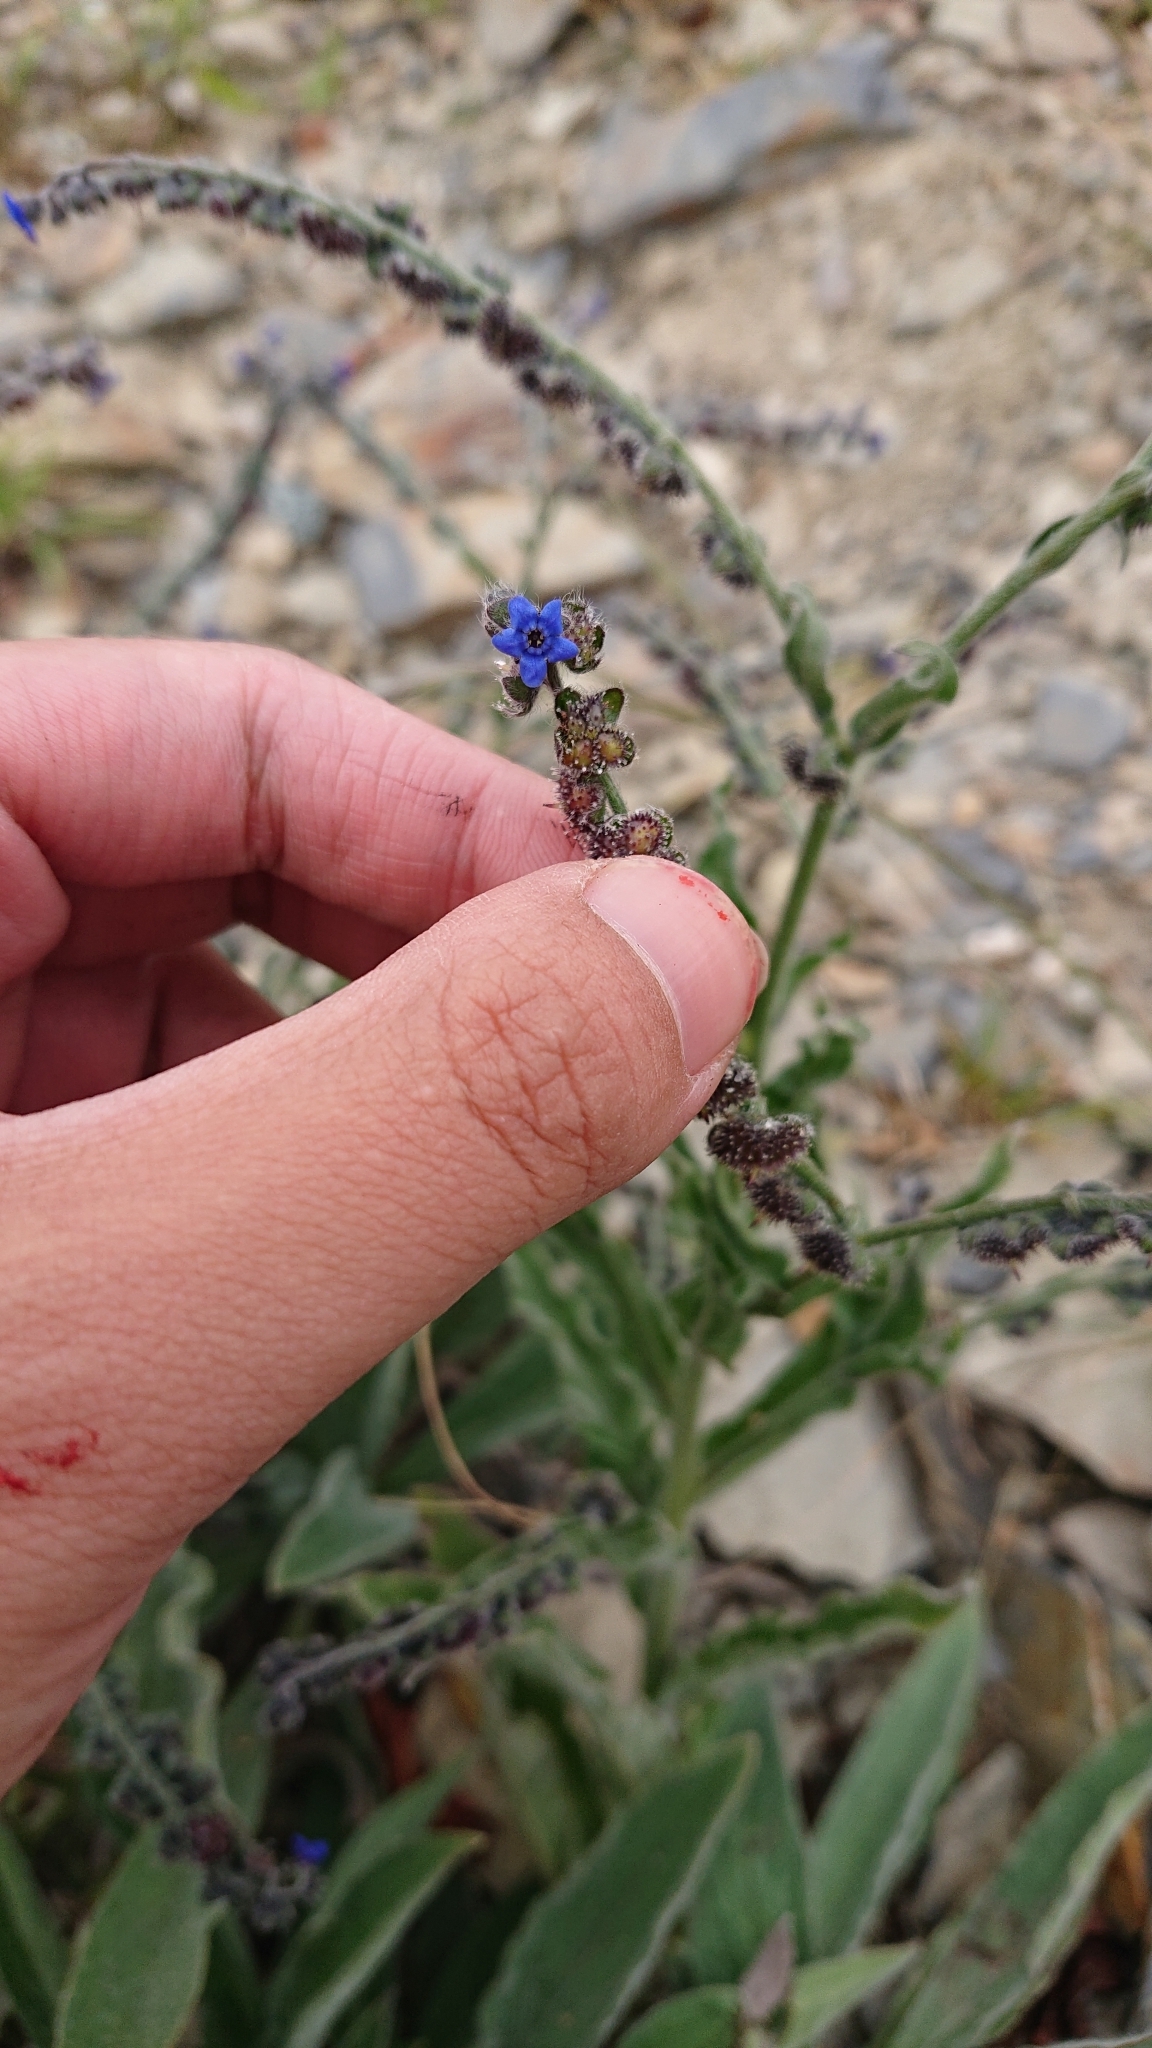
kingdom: Plantae
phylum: Tracheophyta
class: Magnoliopsida
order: Boraginales
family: Boraginaceae
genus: Cynoglossum
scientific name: Cynoglossum alpestre
